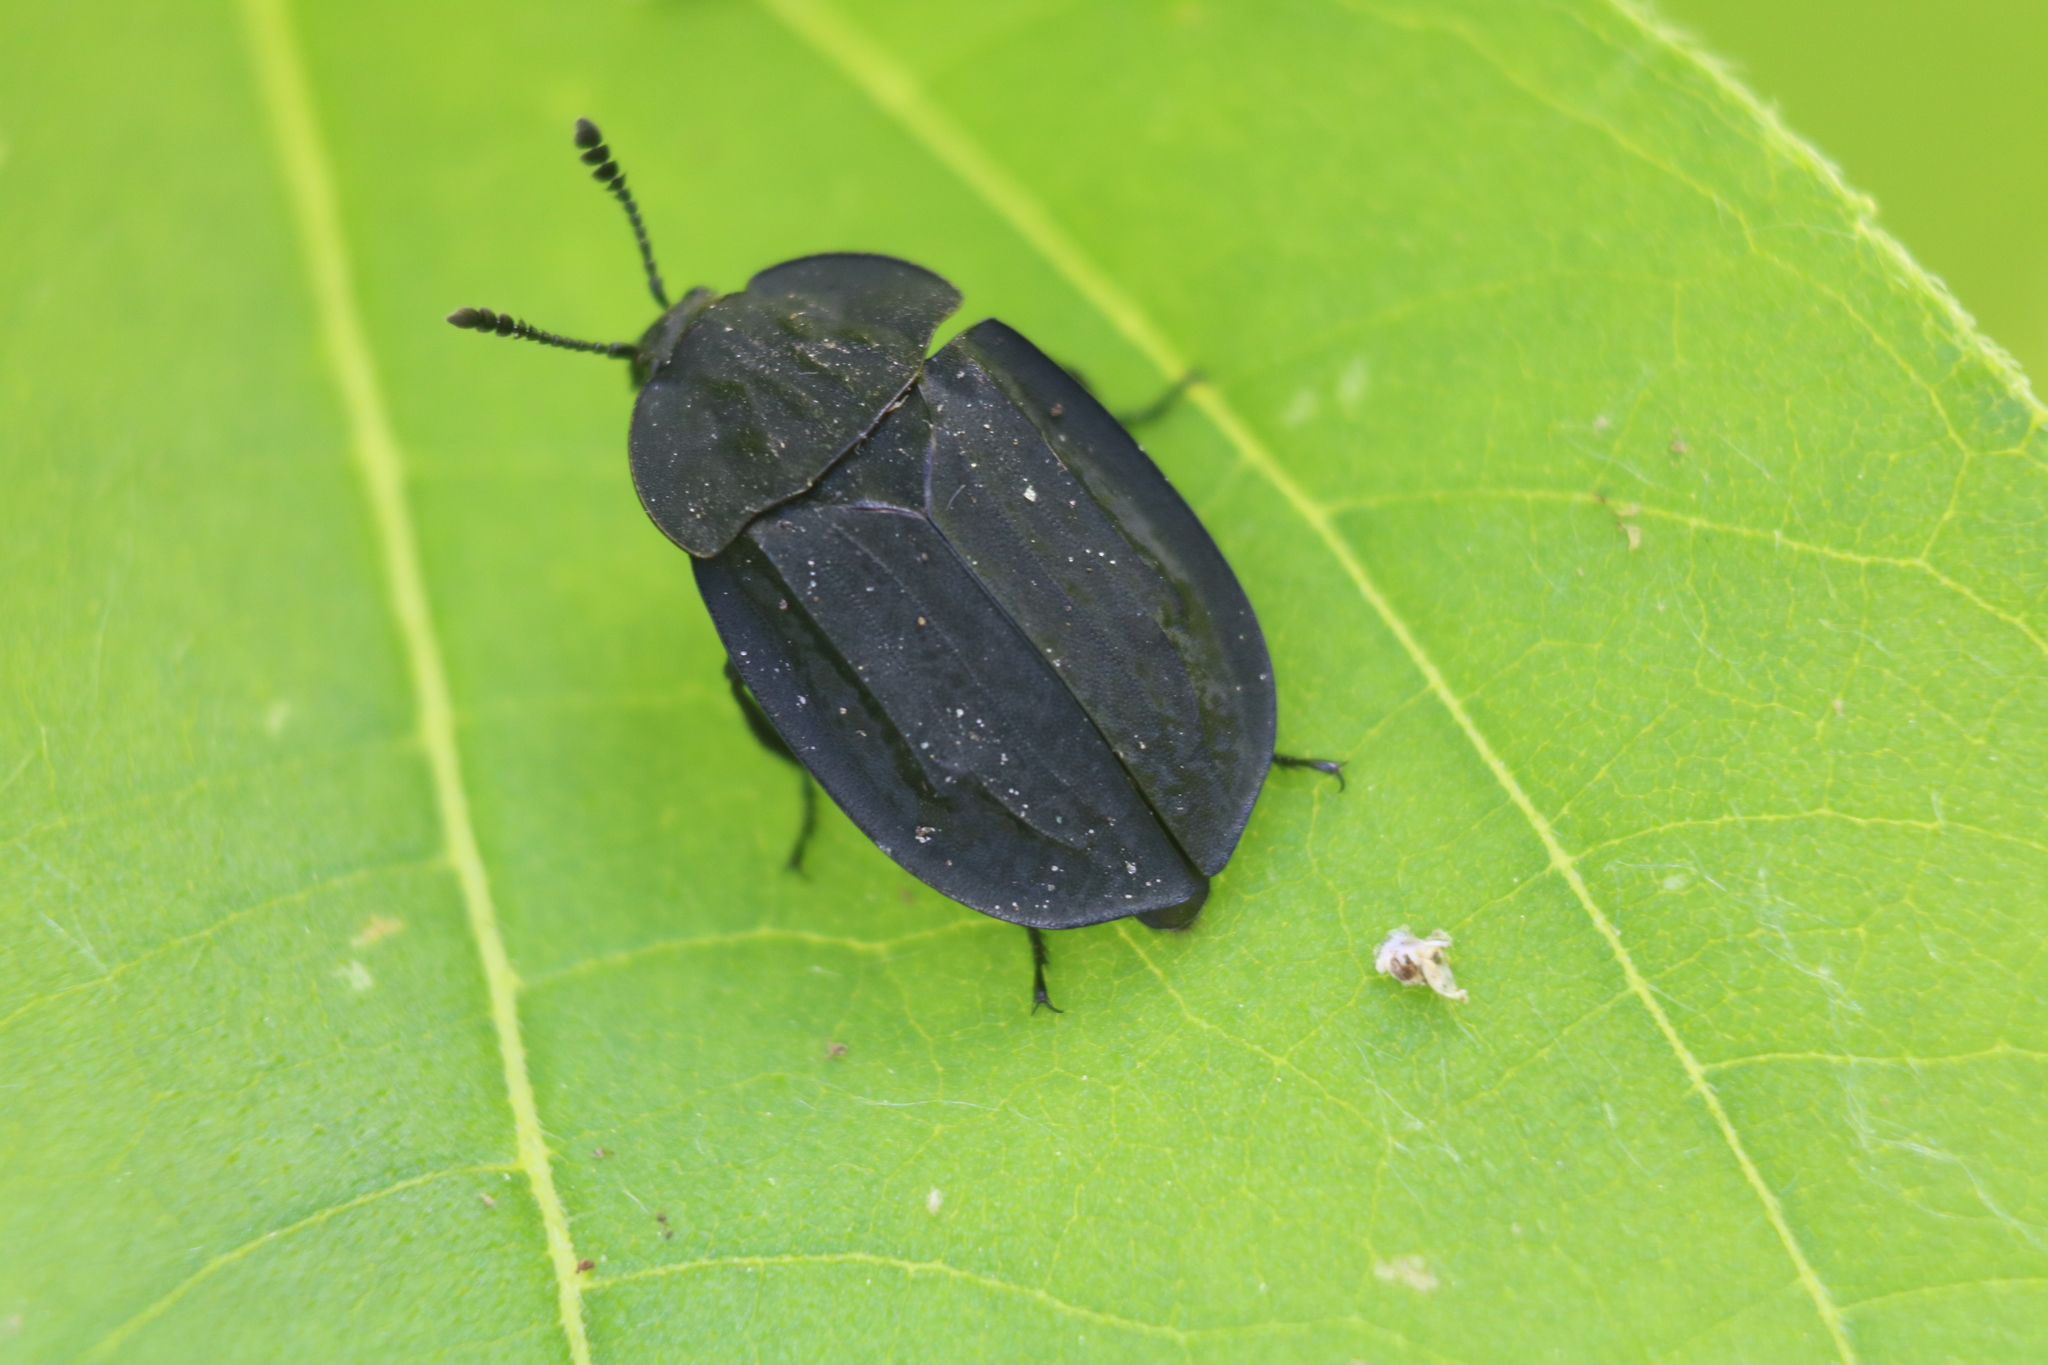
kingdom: Animalia
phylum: Arthropoda
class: Insecta
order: Coleoptera
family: Staphylinidae
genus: Oiceoptoma
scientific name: Oiceoptoma inaequale
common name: Ridged carrion beetle
